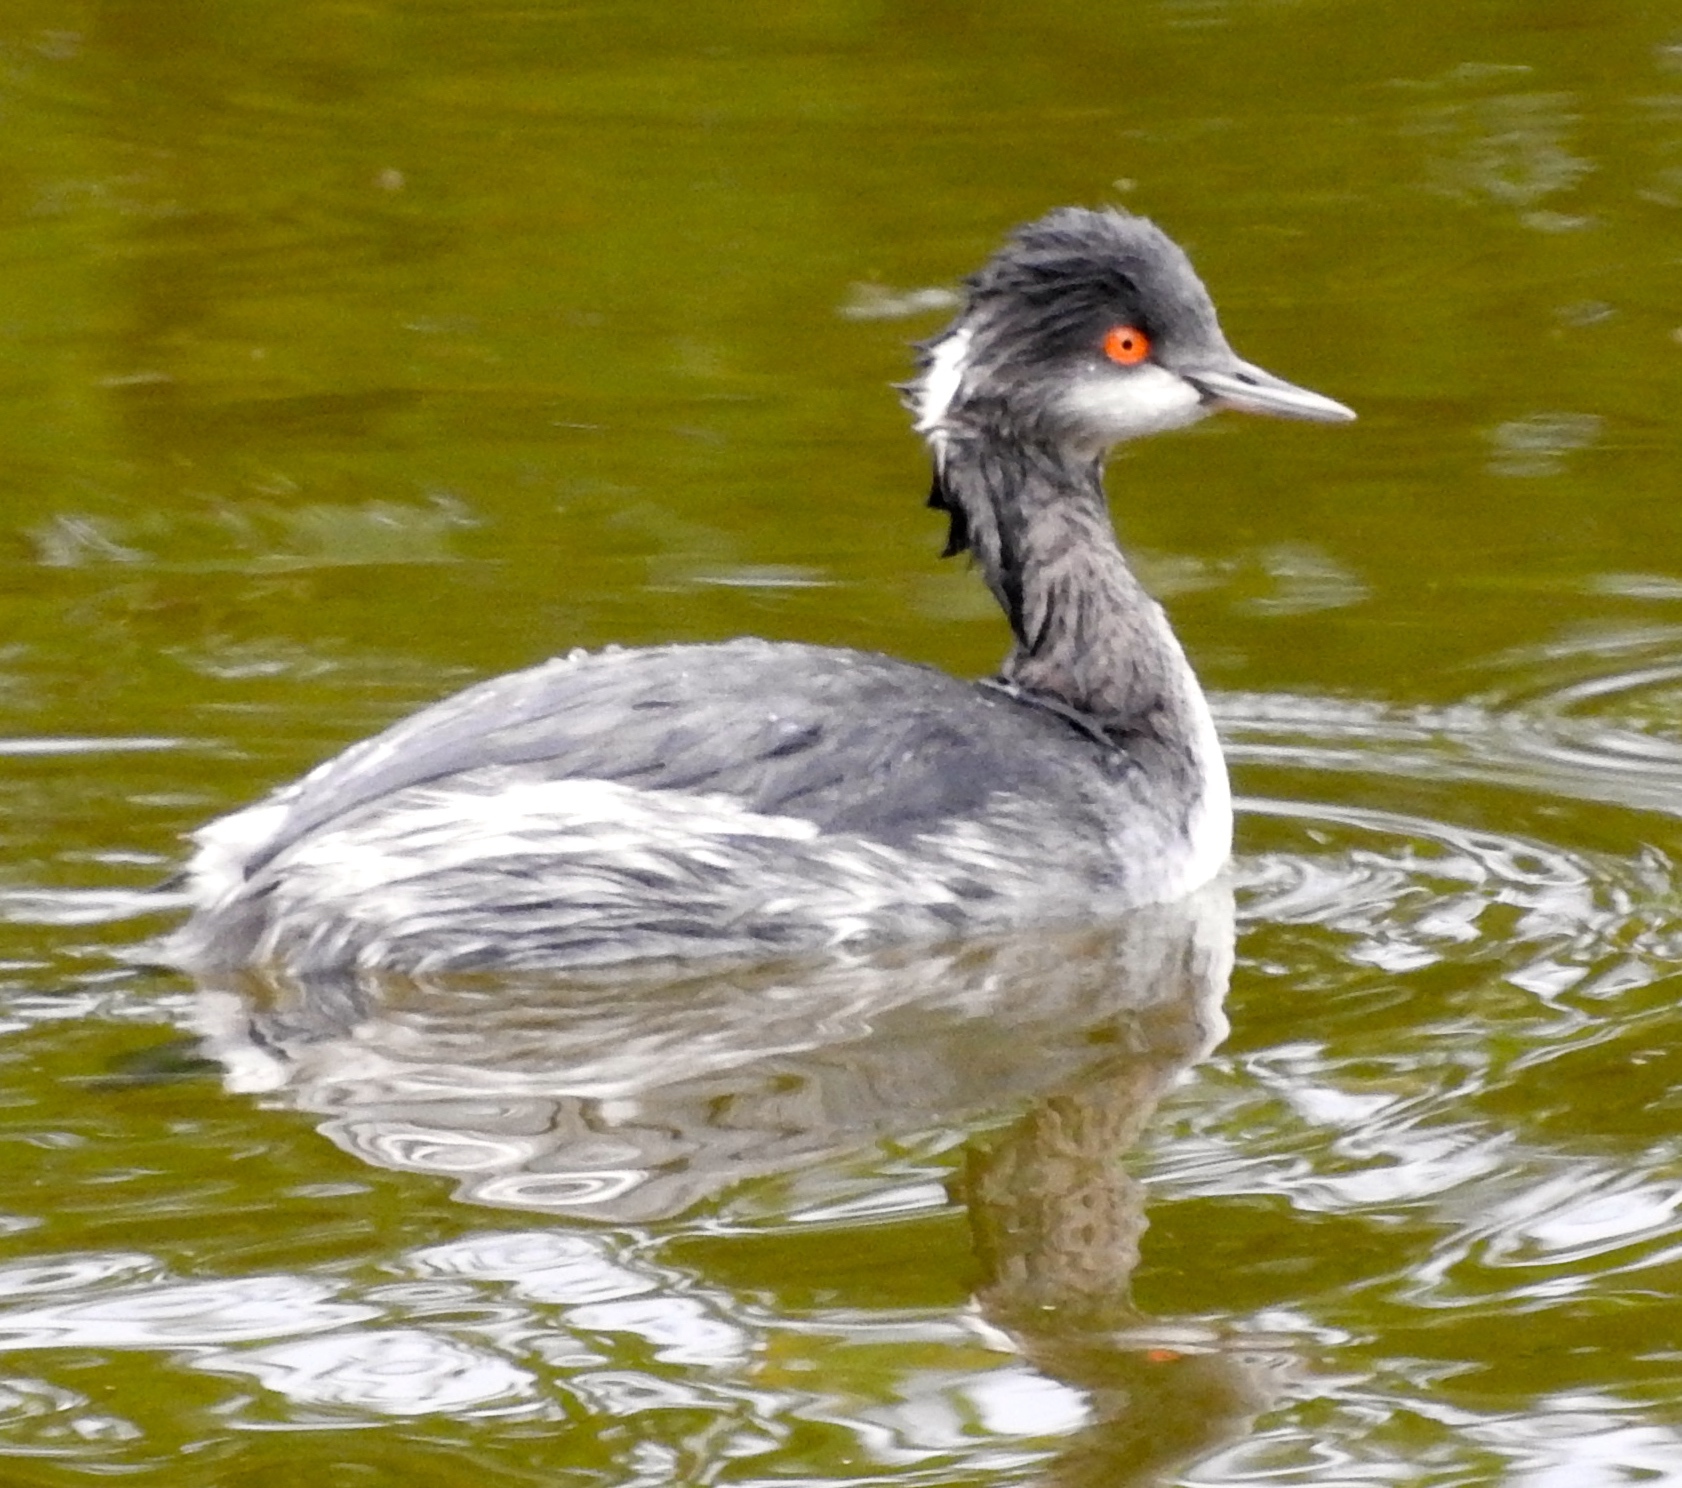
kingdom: Animalia
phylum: Chordata
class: Aves
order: Podicipediformes
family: Podicipedidae
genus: Podiceps
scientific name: Podiceps nigricollis
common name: Black-necked grebe
